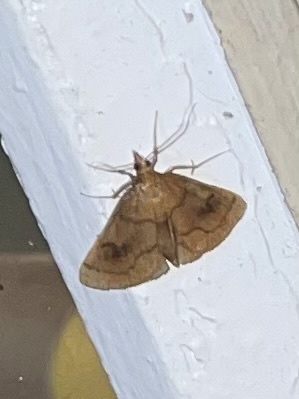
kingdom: Animalia
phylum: Arthropoda
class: Insecta
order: Lepidoptera
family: Crambidae
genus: Fumibotys
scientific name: Fumibotys fumalis
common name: Mint root borer moth
